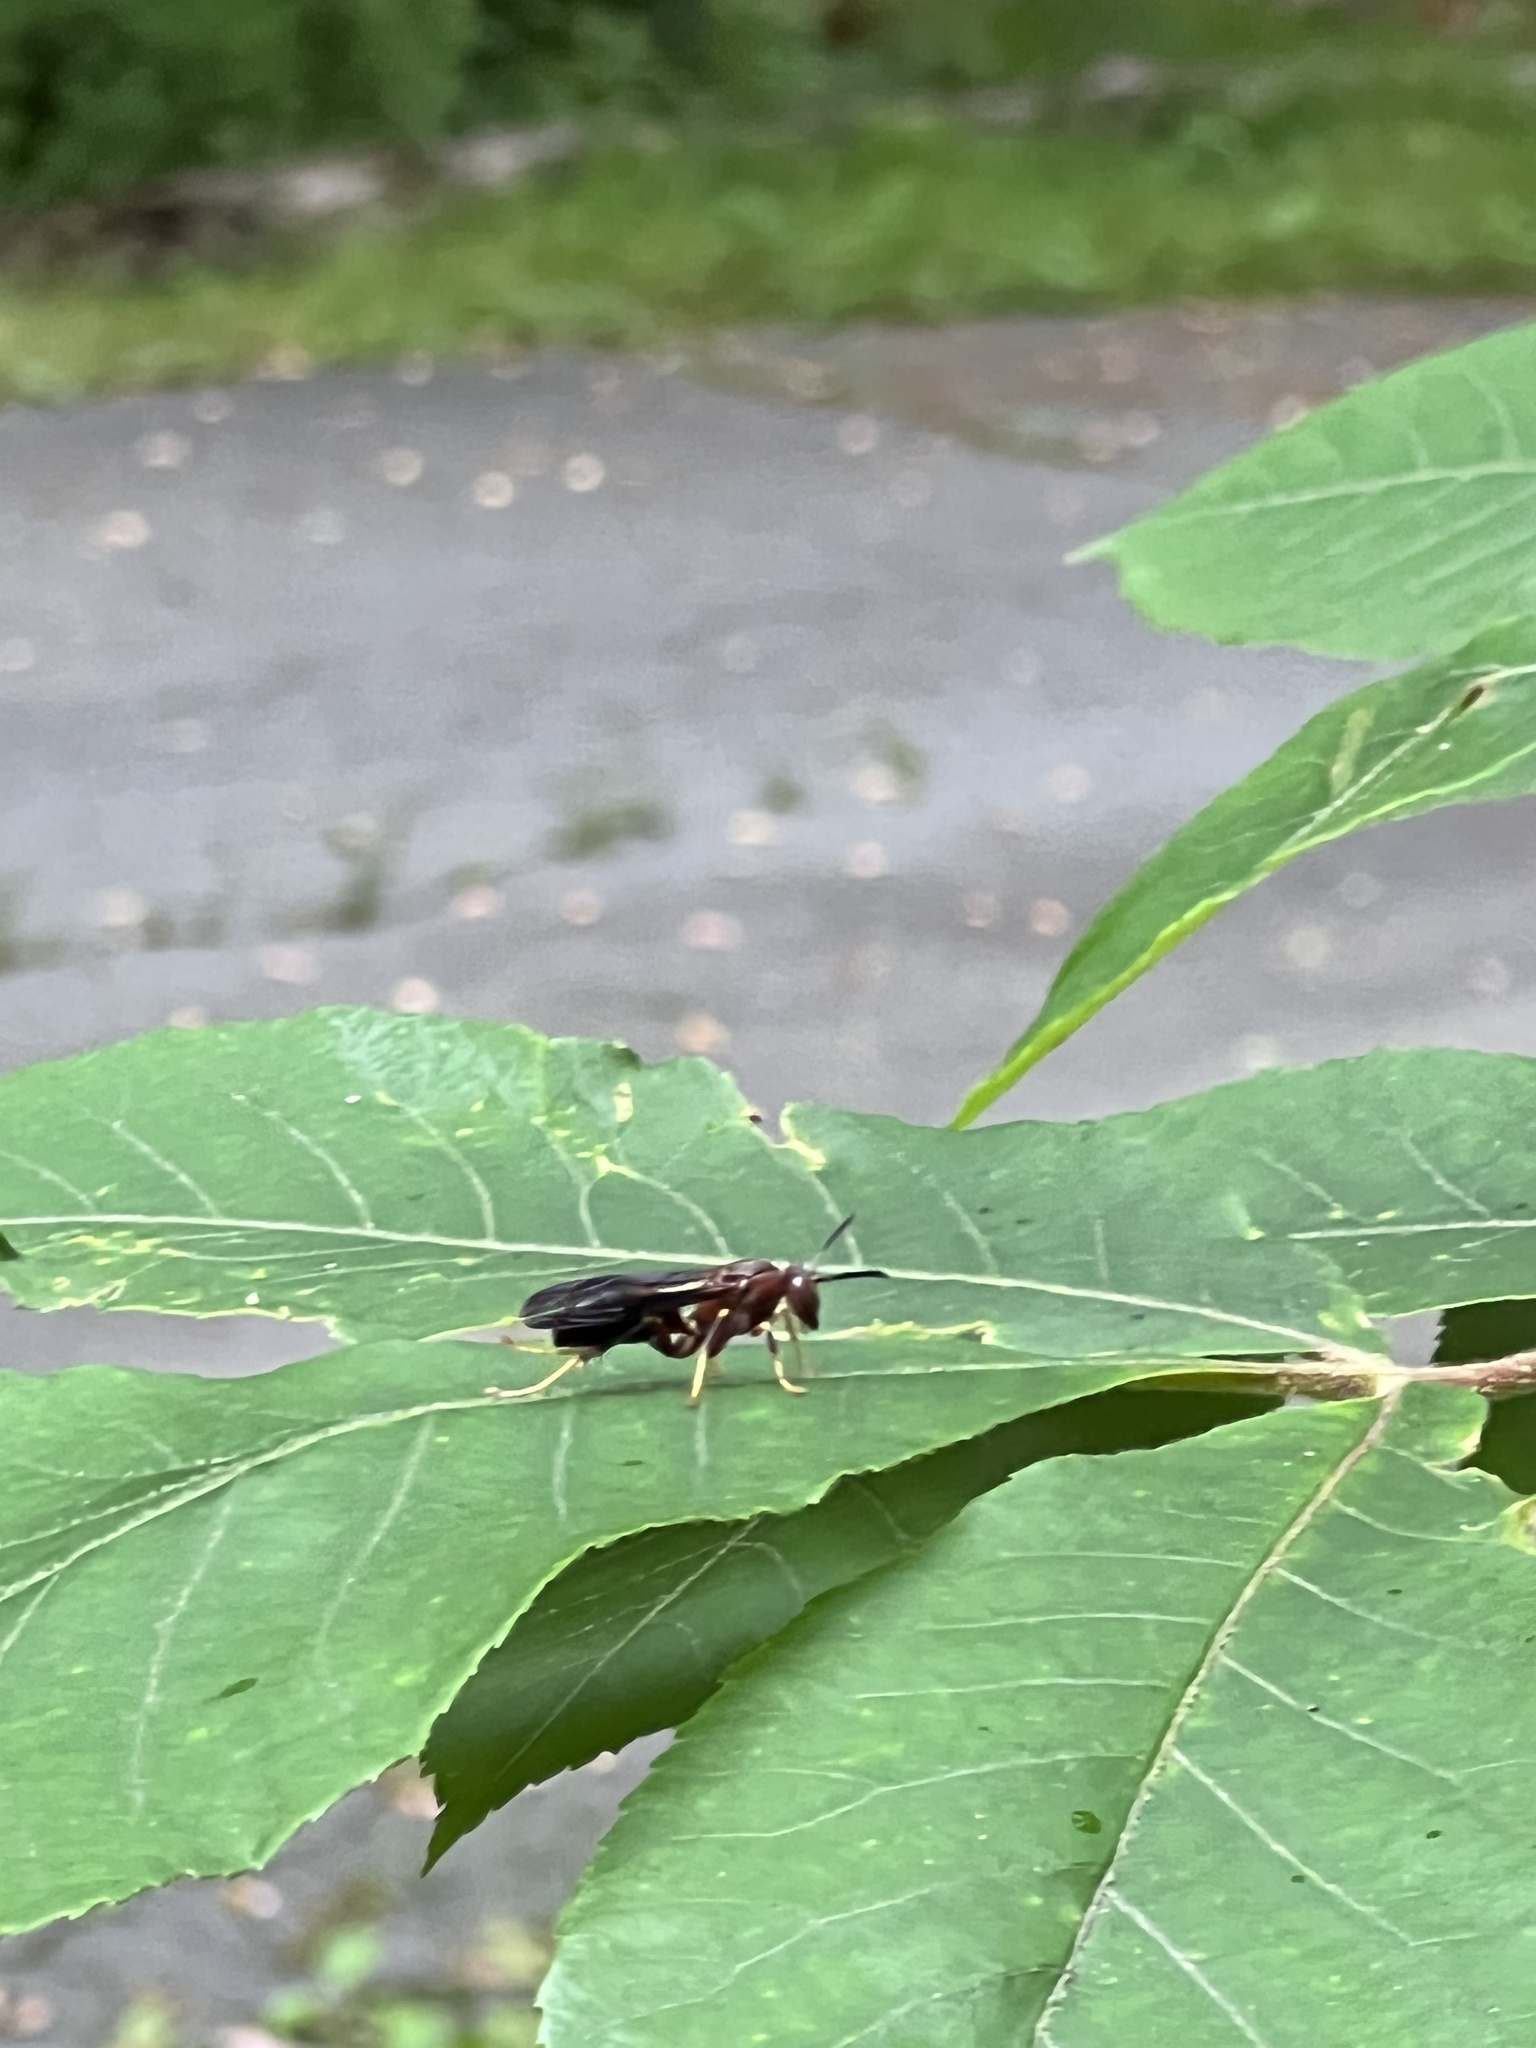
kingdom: Animalia
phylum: Arthropoda
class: Insecta
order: Hymenoptera
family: Eumenidae
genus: Polistes
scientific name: Polistes metricus
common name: Metric paper wasp
